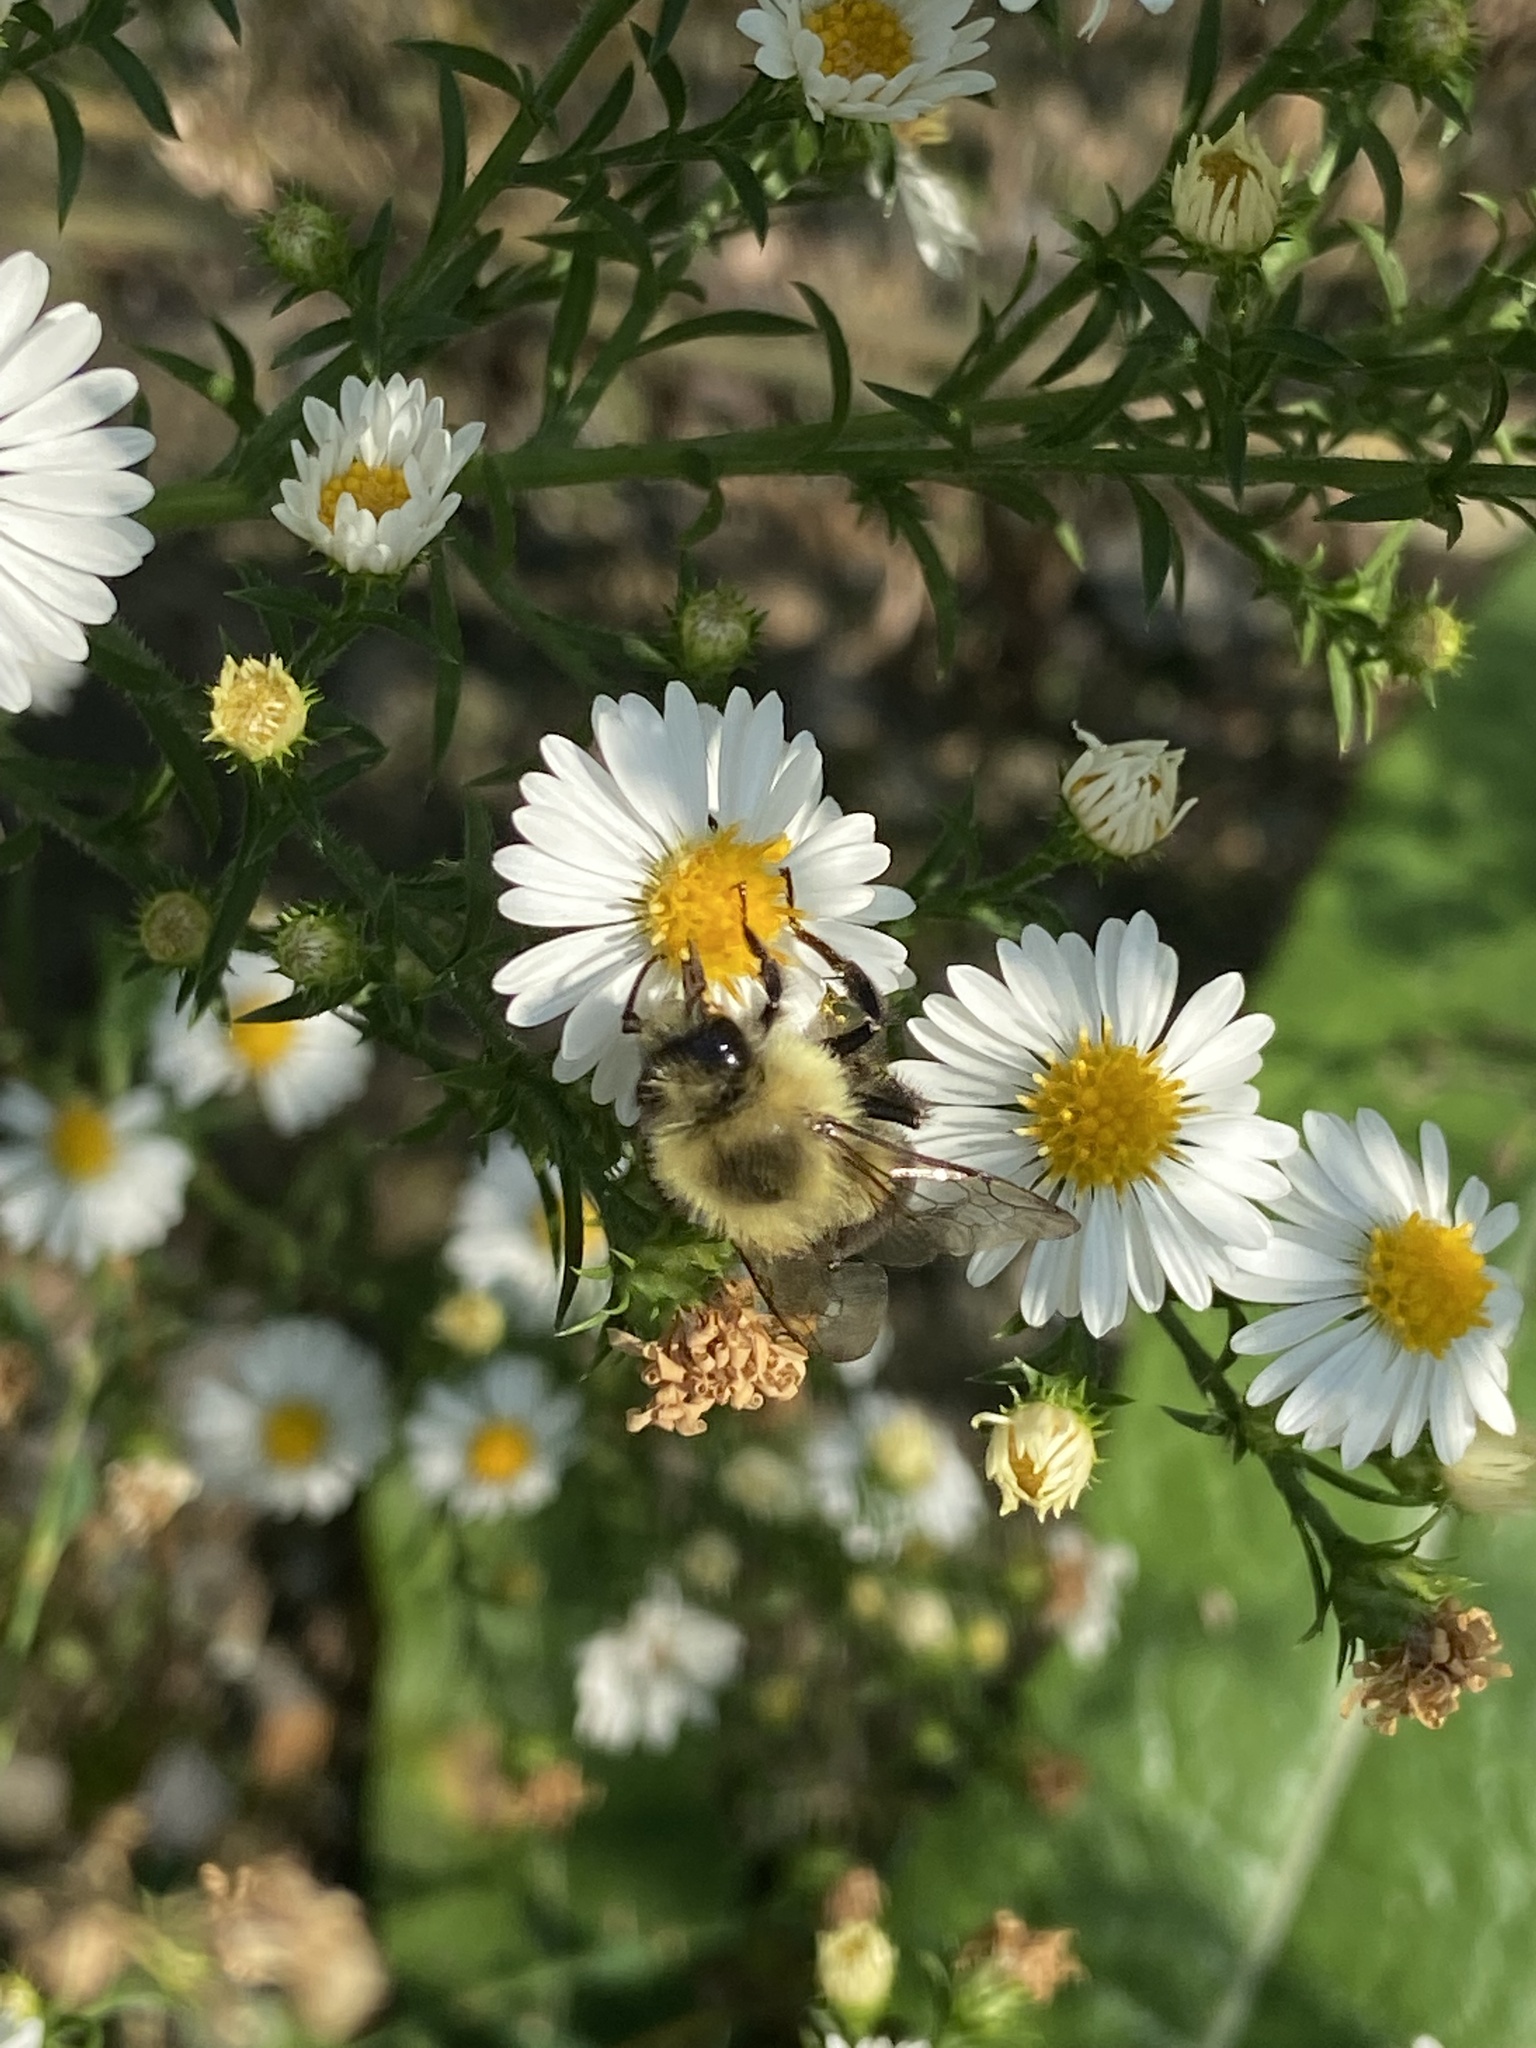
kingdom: Animalia
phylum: Arthropoda
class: Insecta
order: Hymenoptera
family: Apidae
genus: Bombus
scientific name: Bombus impatiens
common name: Common eastern bumble bee
